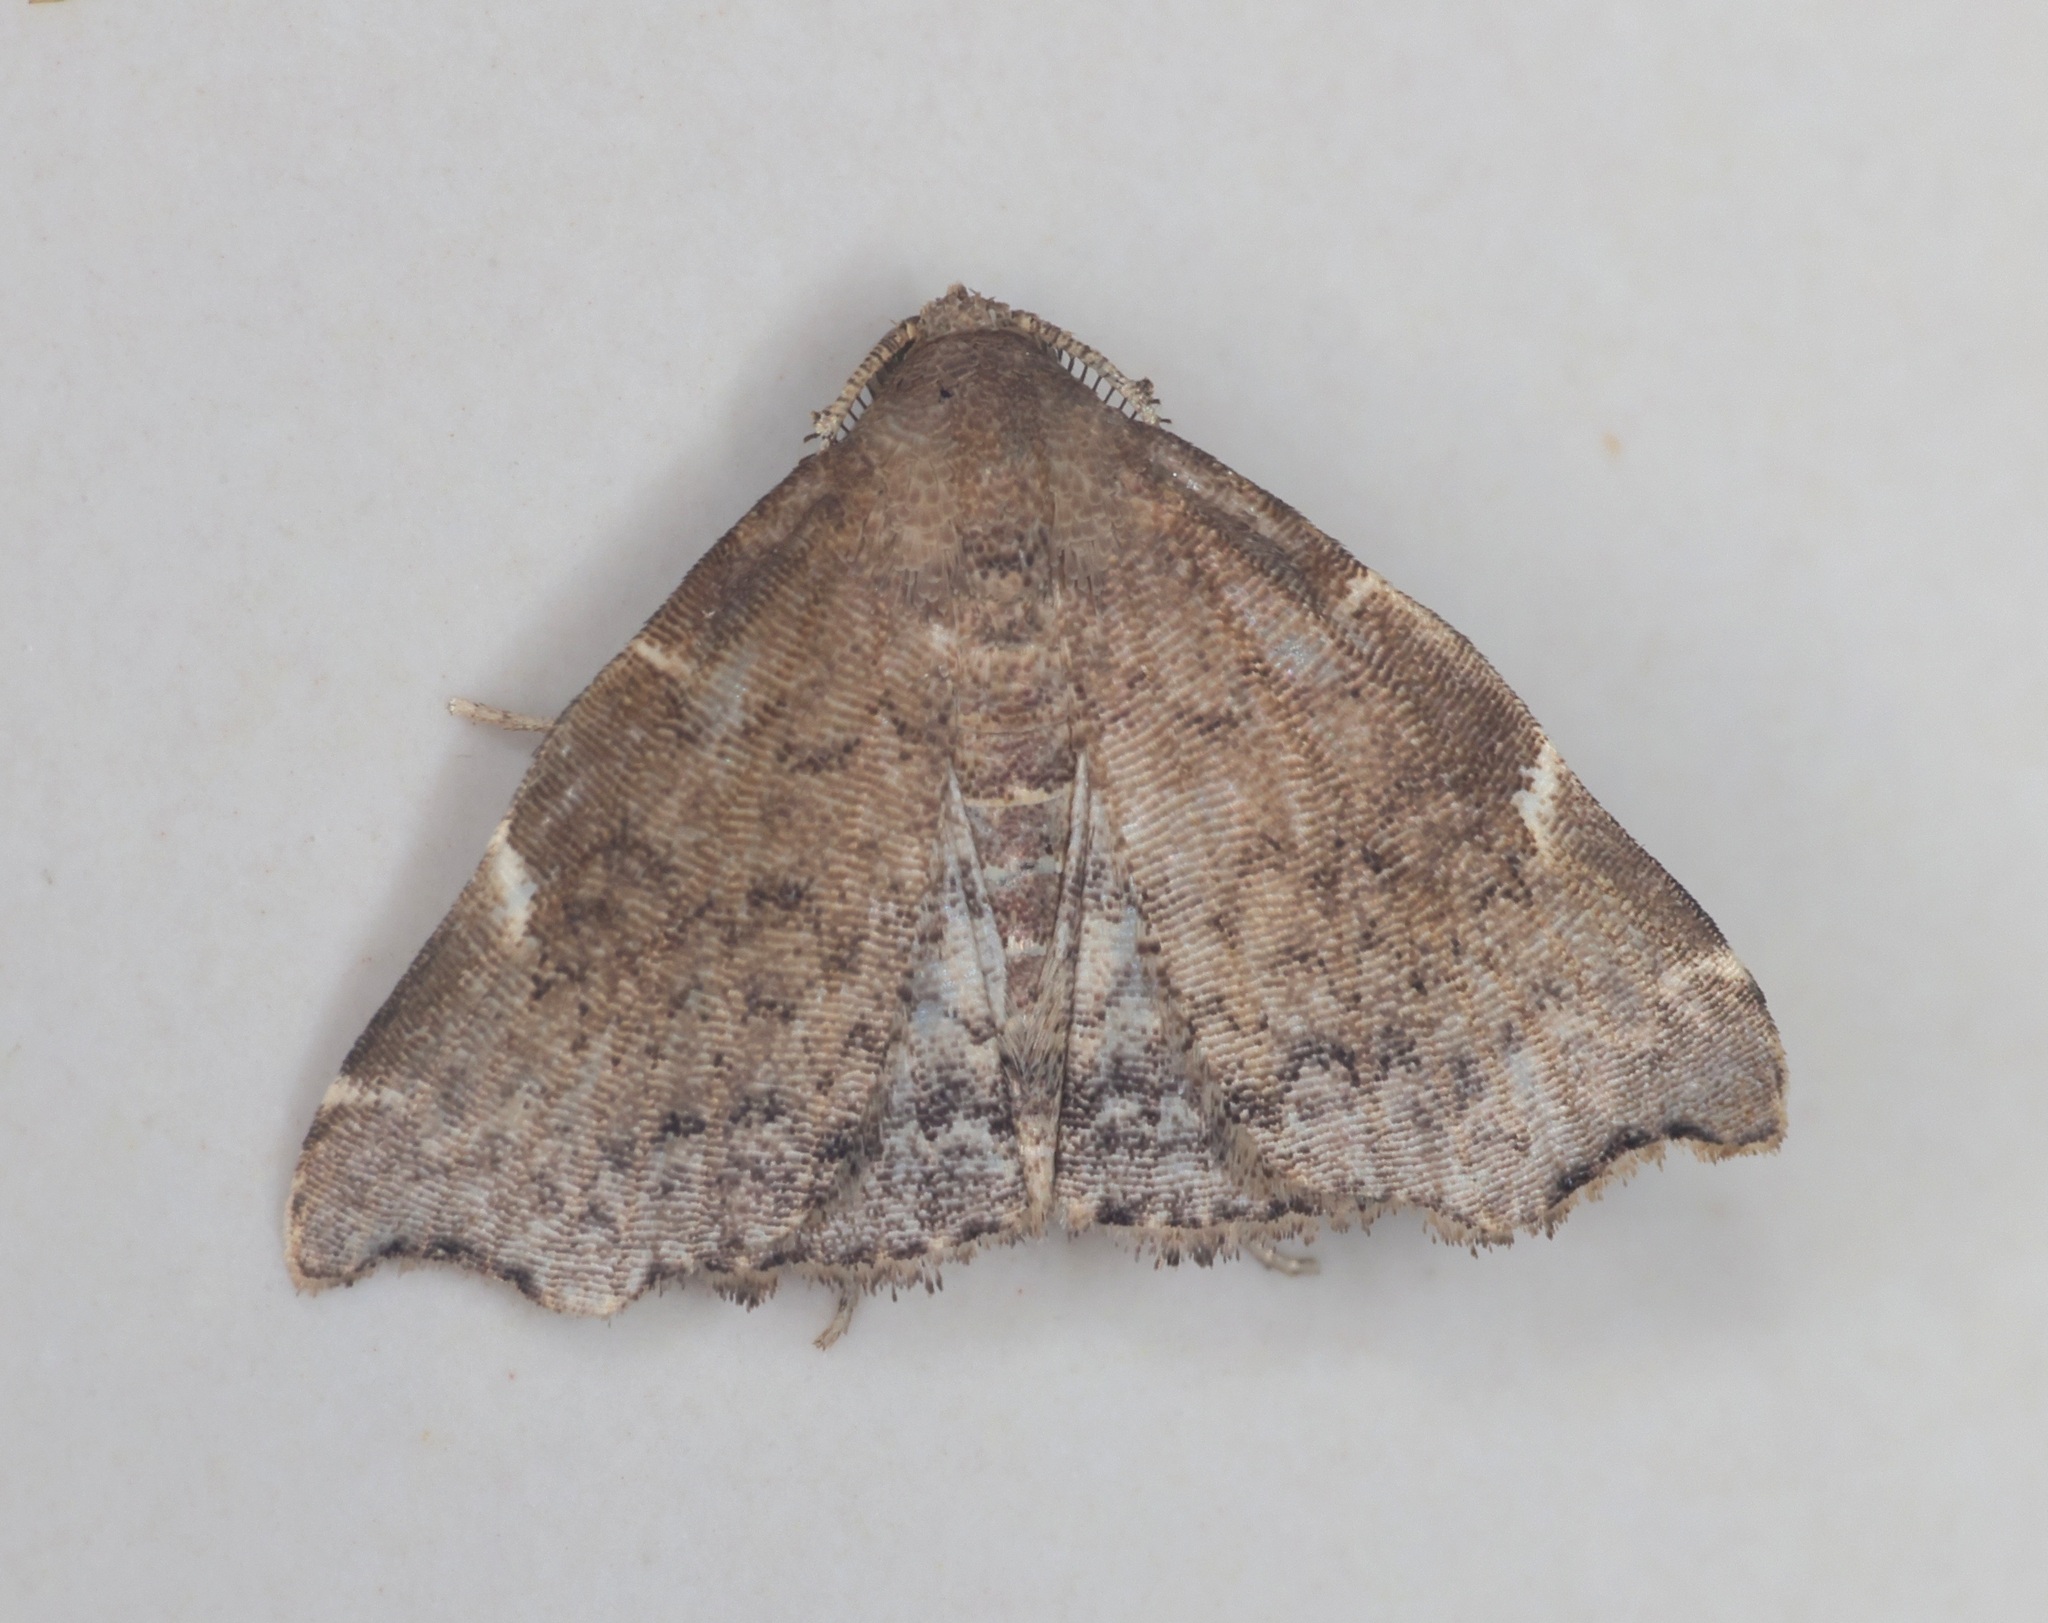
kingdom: Animalia
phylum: Arthropoda
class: Insecta
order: Lepidoptera
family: Erebidae
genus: Goniocraspedon
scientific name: Goniocraspedon mistura
